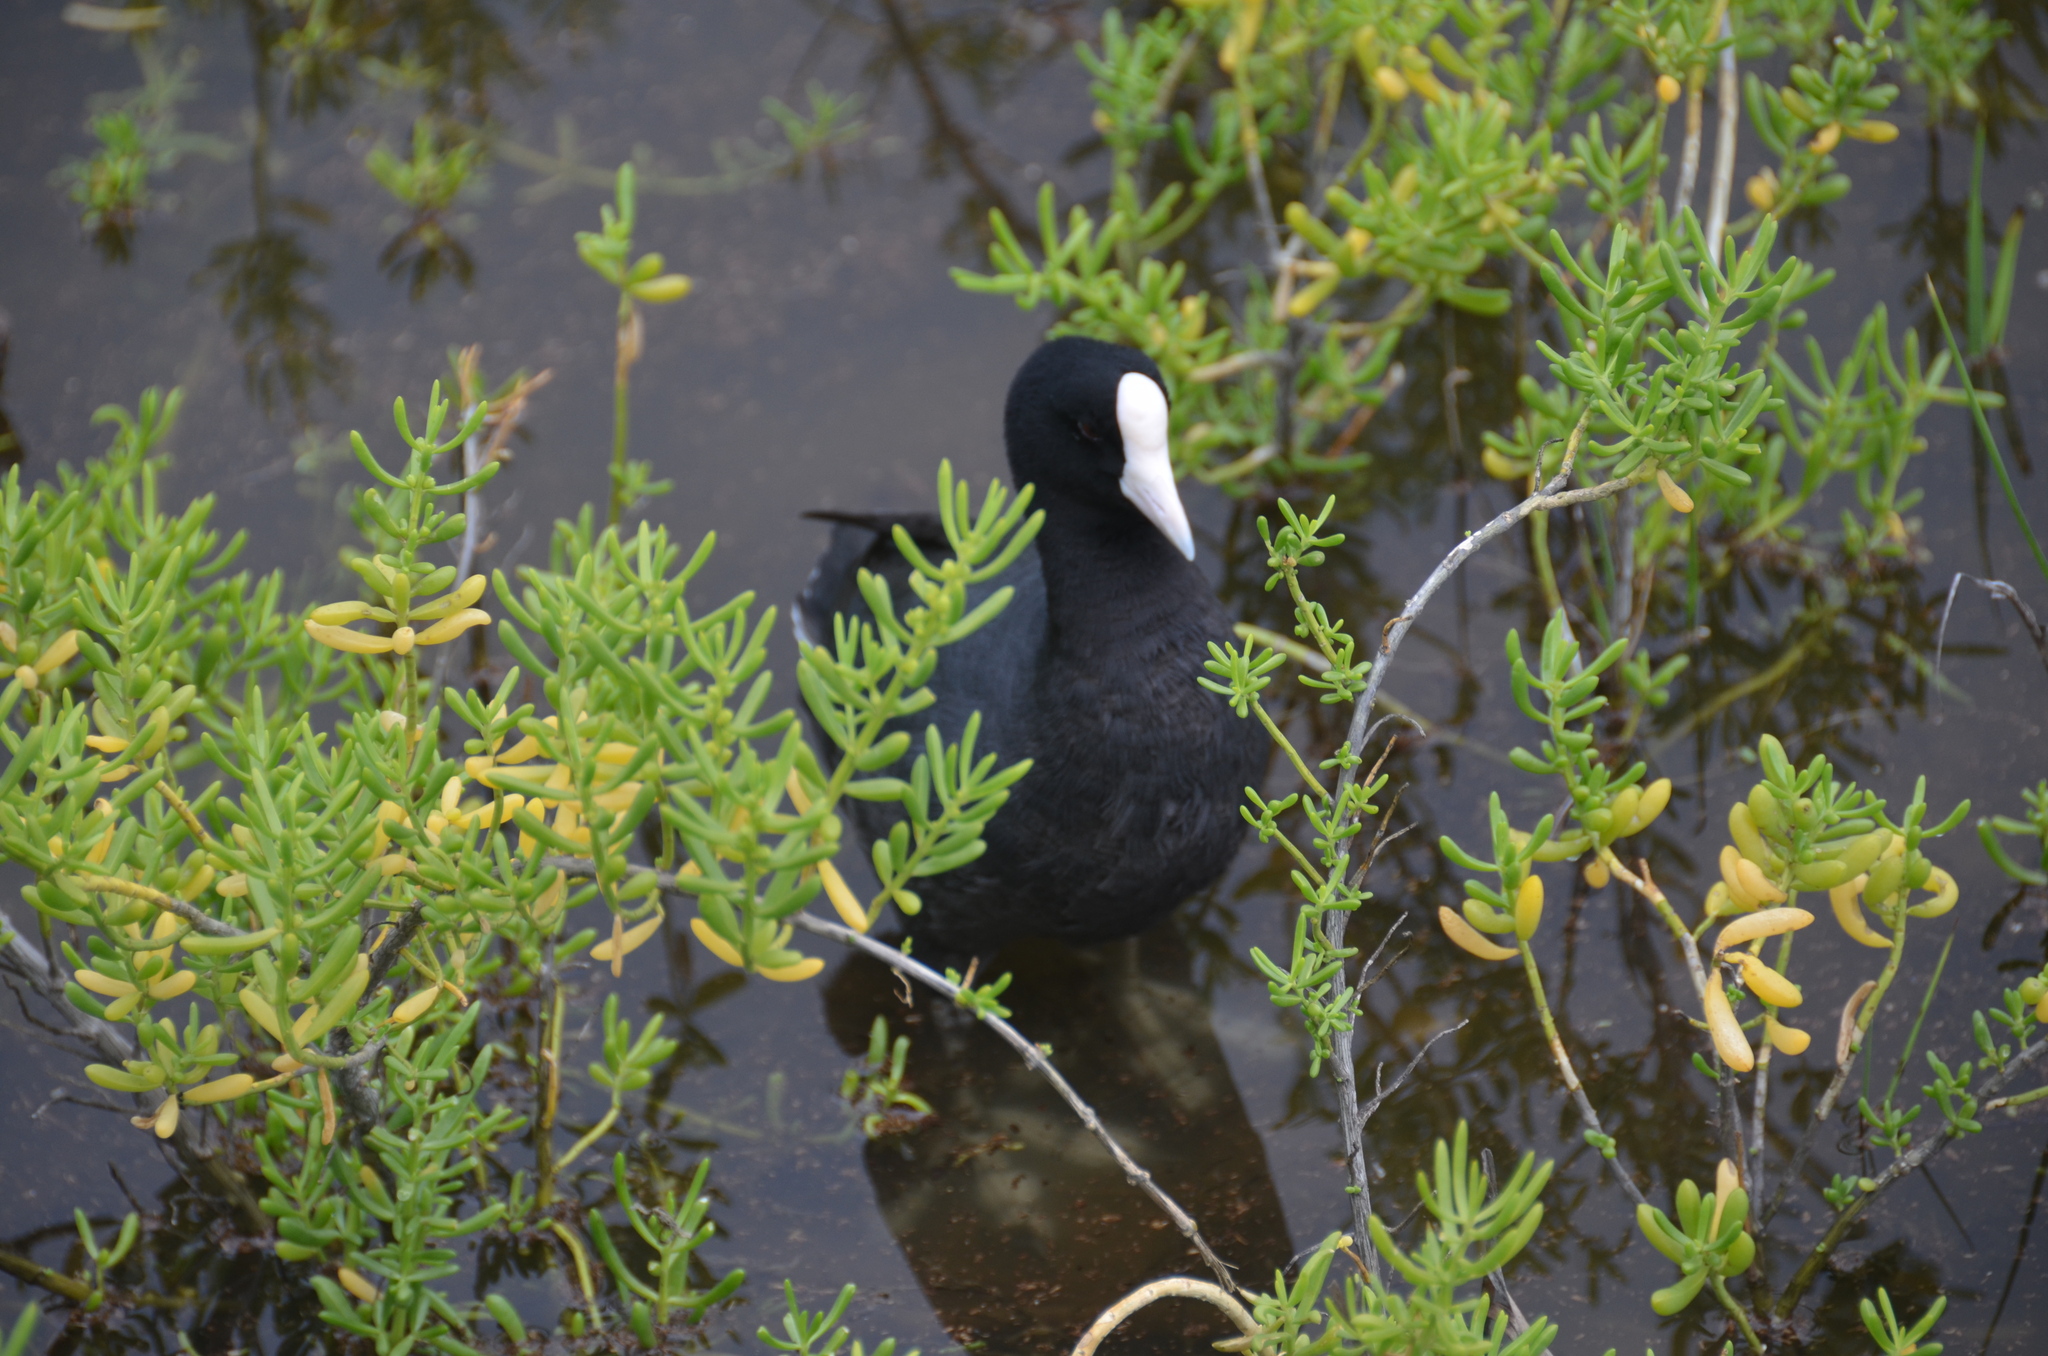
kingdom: Animalia
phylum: Chordata
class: Aves
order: Gruiformes
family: Rallidae
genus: Fulica
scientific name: Fulica alai
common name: Hawaiian coot
